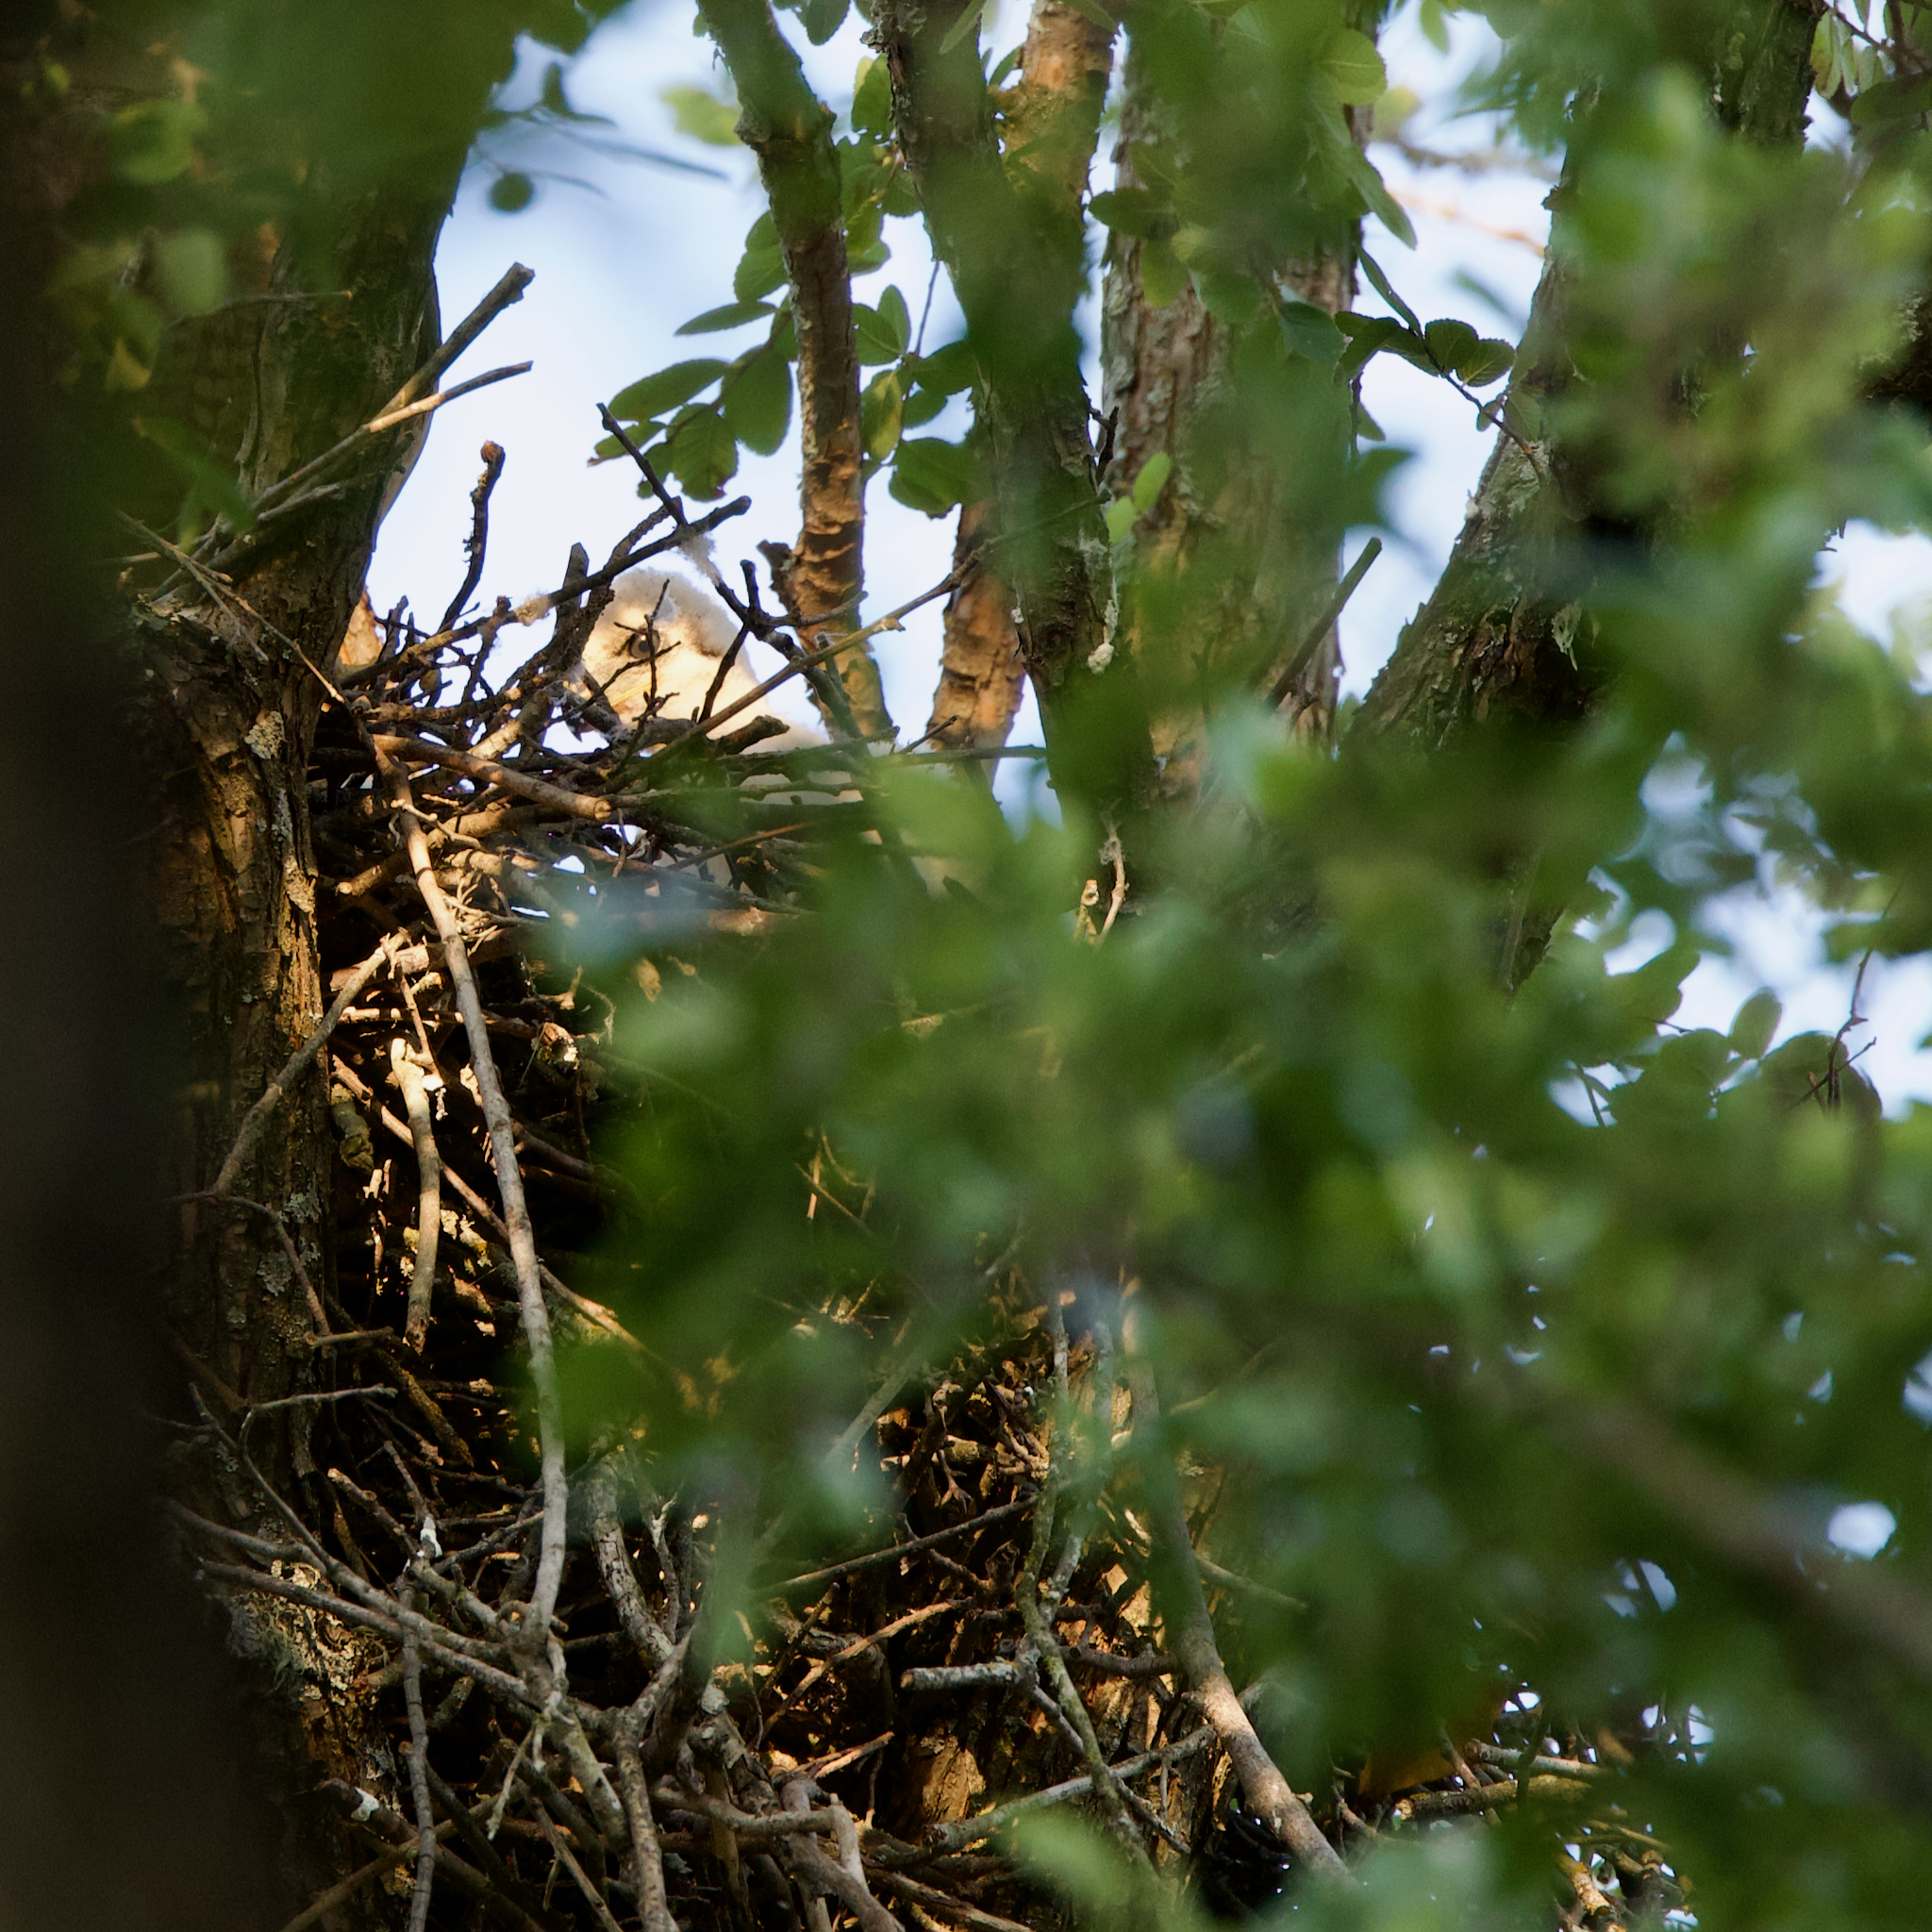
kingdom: Animalia
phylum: Chordata
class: Aves
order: Accipitriformes
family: Accipitridae
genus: Accipiter
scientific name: Accipiter cooperii
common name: Cooper's hawk
